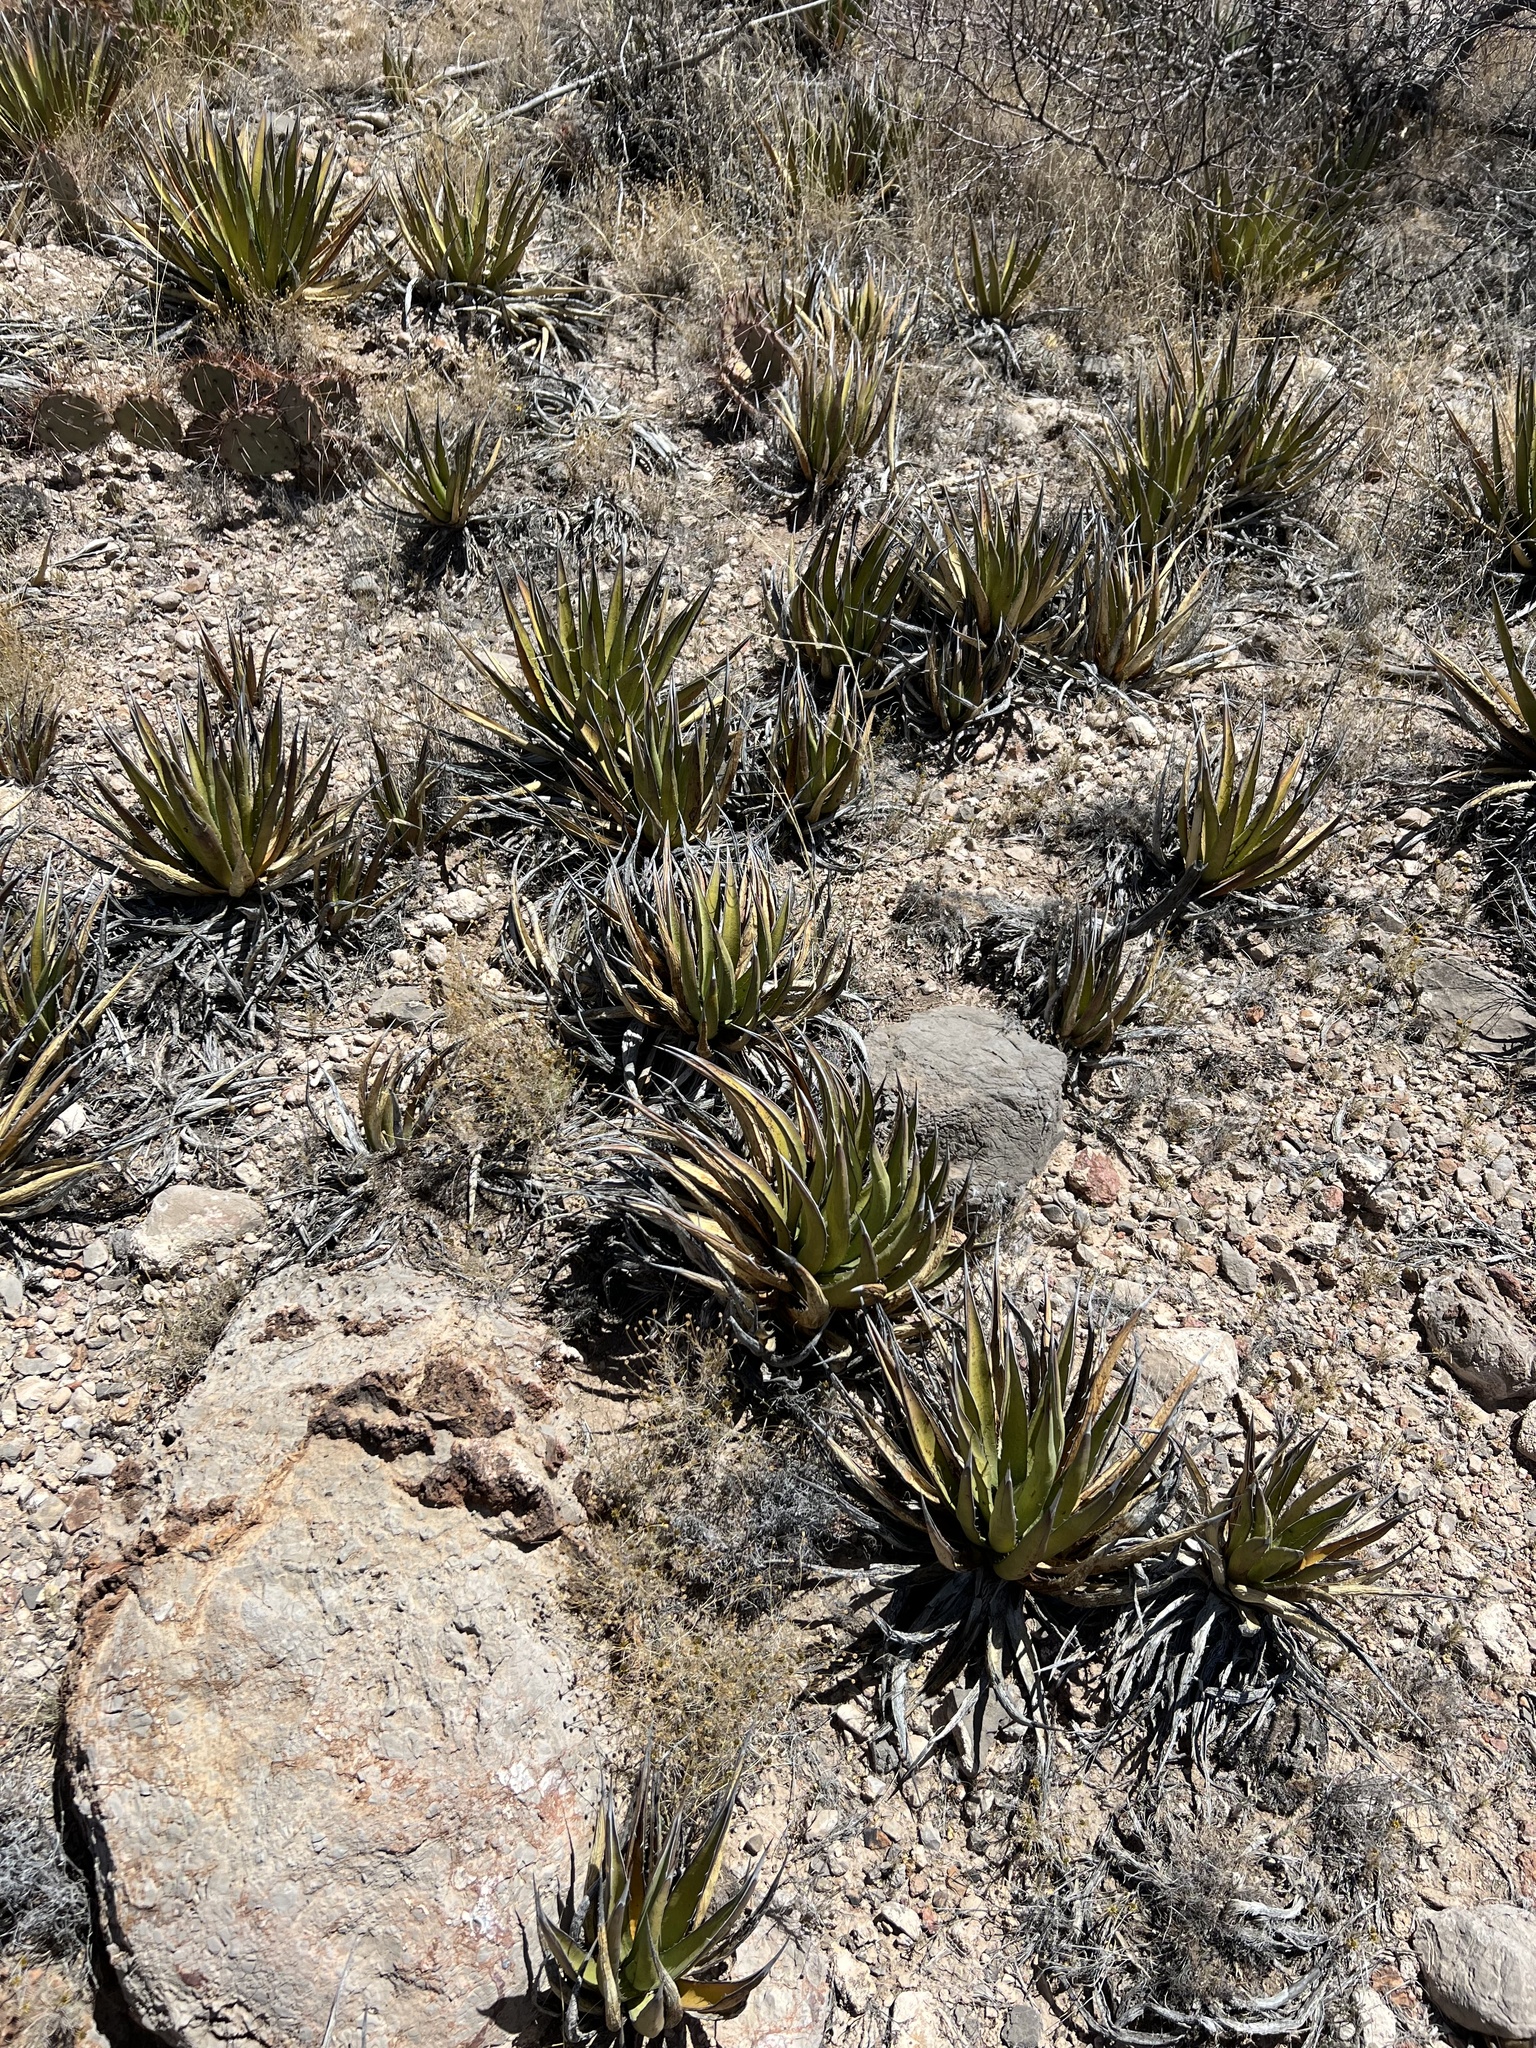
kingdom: Plantae
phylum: Tracheophyta
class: Liliopsida
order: Asparagales
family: Asparagaceae
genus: Agave
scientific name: Agave lechuguilla
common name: Lecheguilla agave
